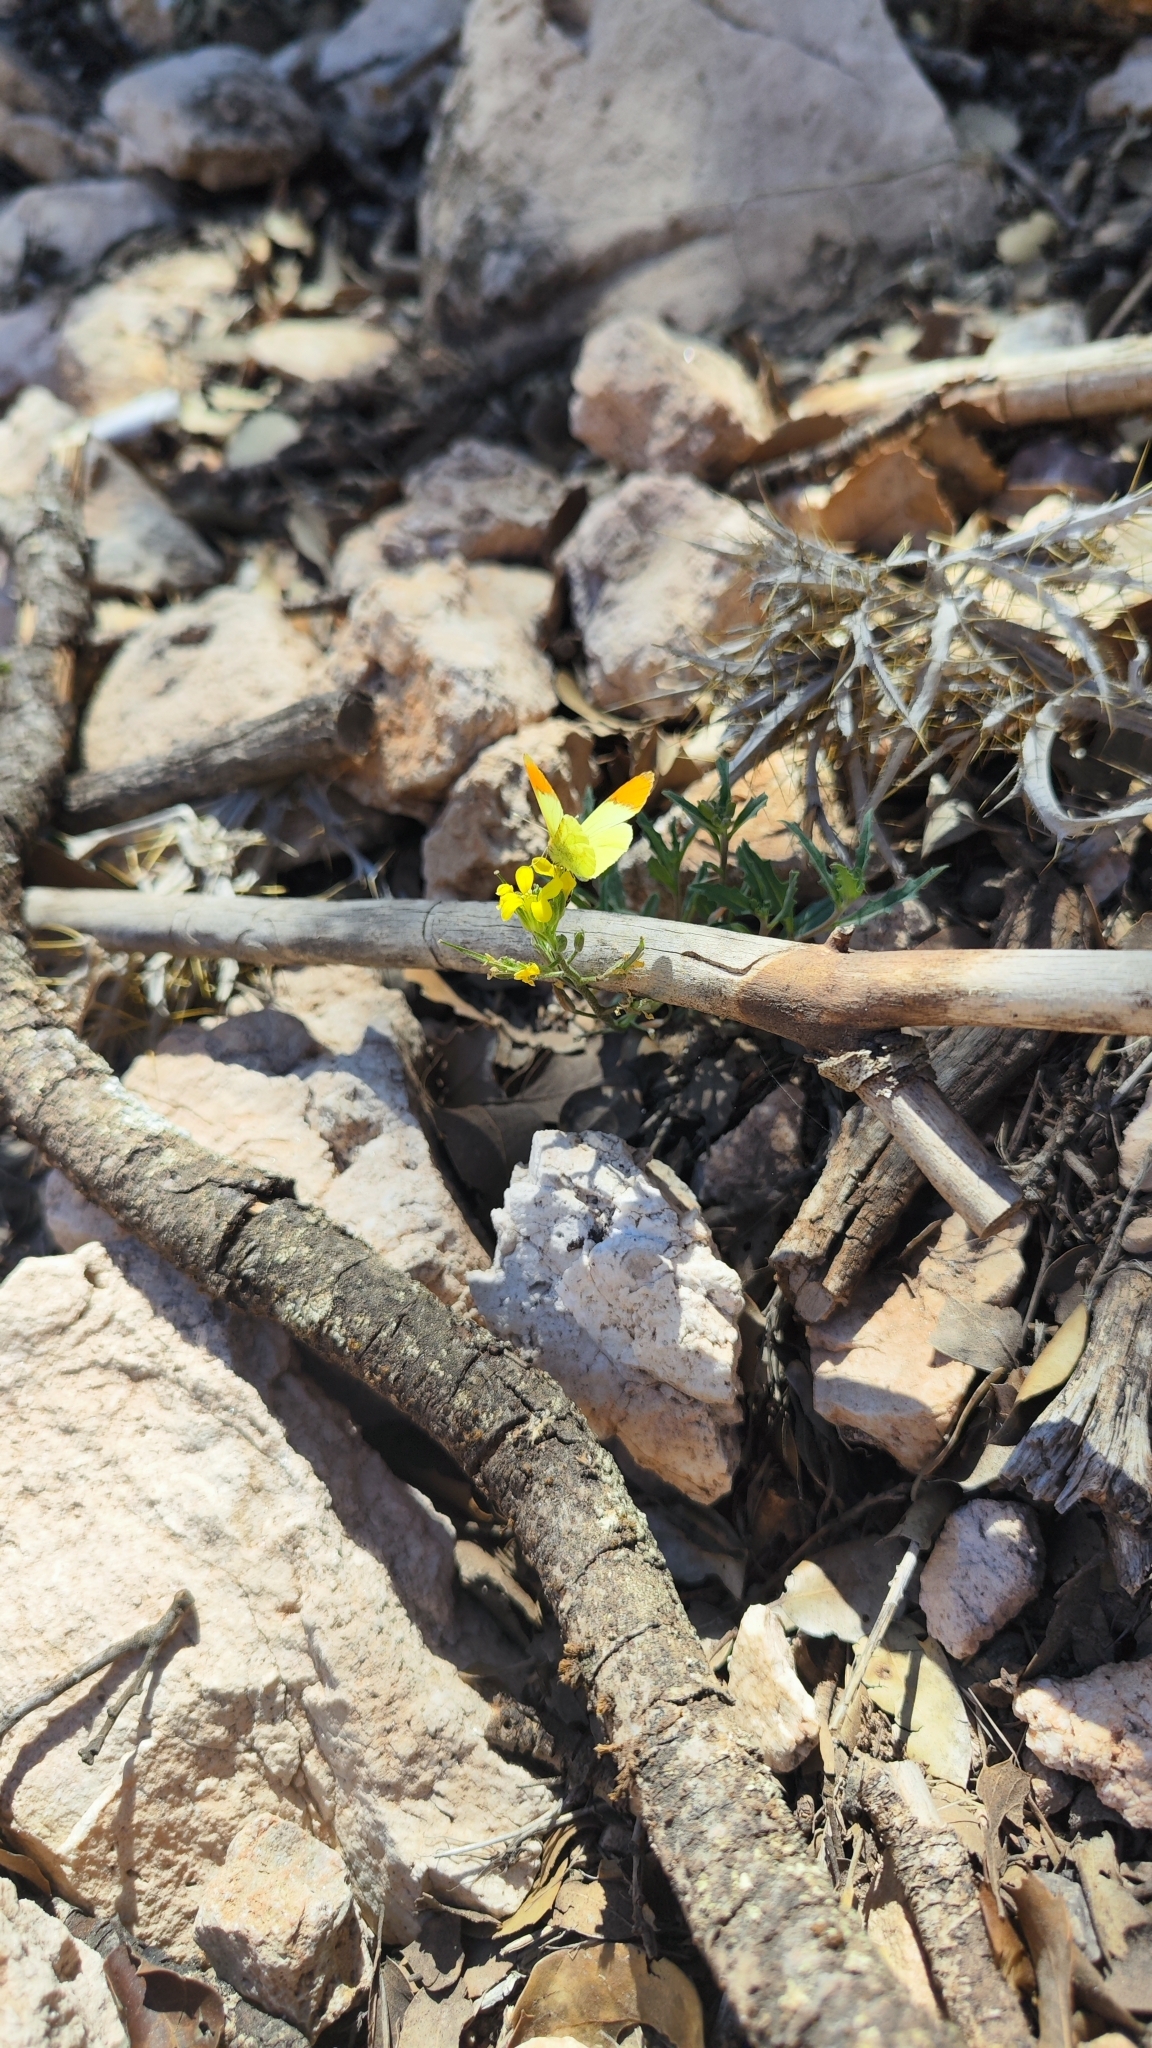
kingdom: Animalia
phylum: Arthropoda
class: Insecta
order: Lepidoptera
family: Pieridae
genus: Anthocharis
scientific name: Anthocharis belia
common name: Moroccan orange tip
